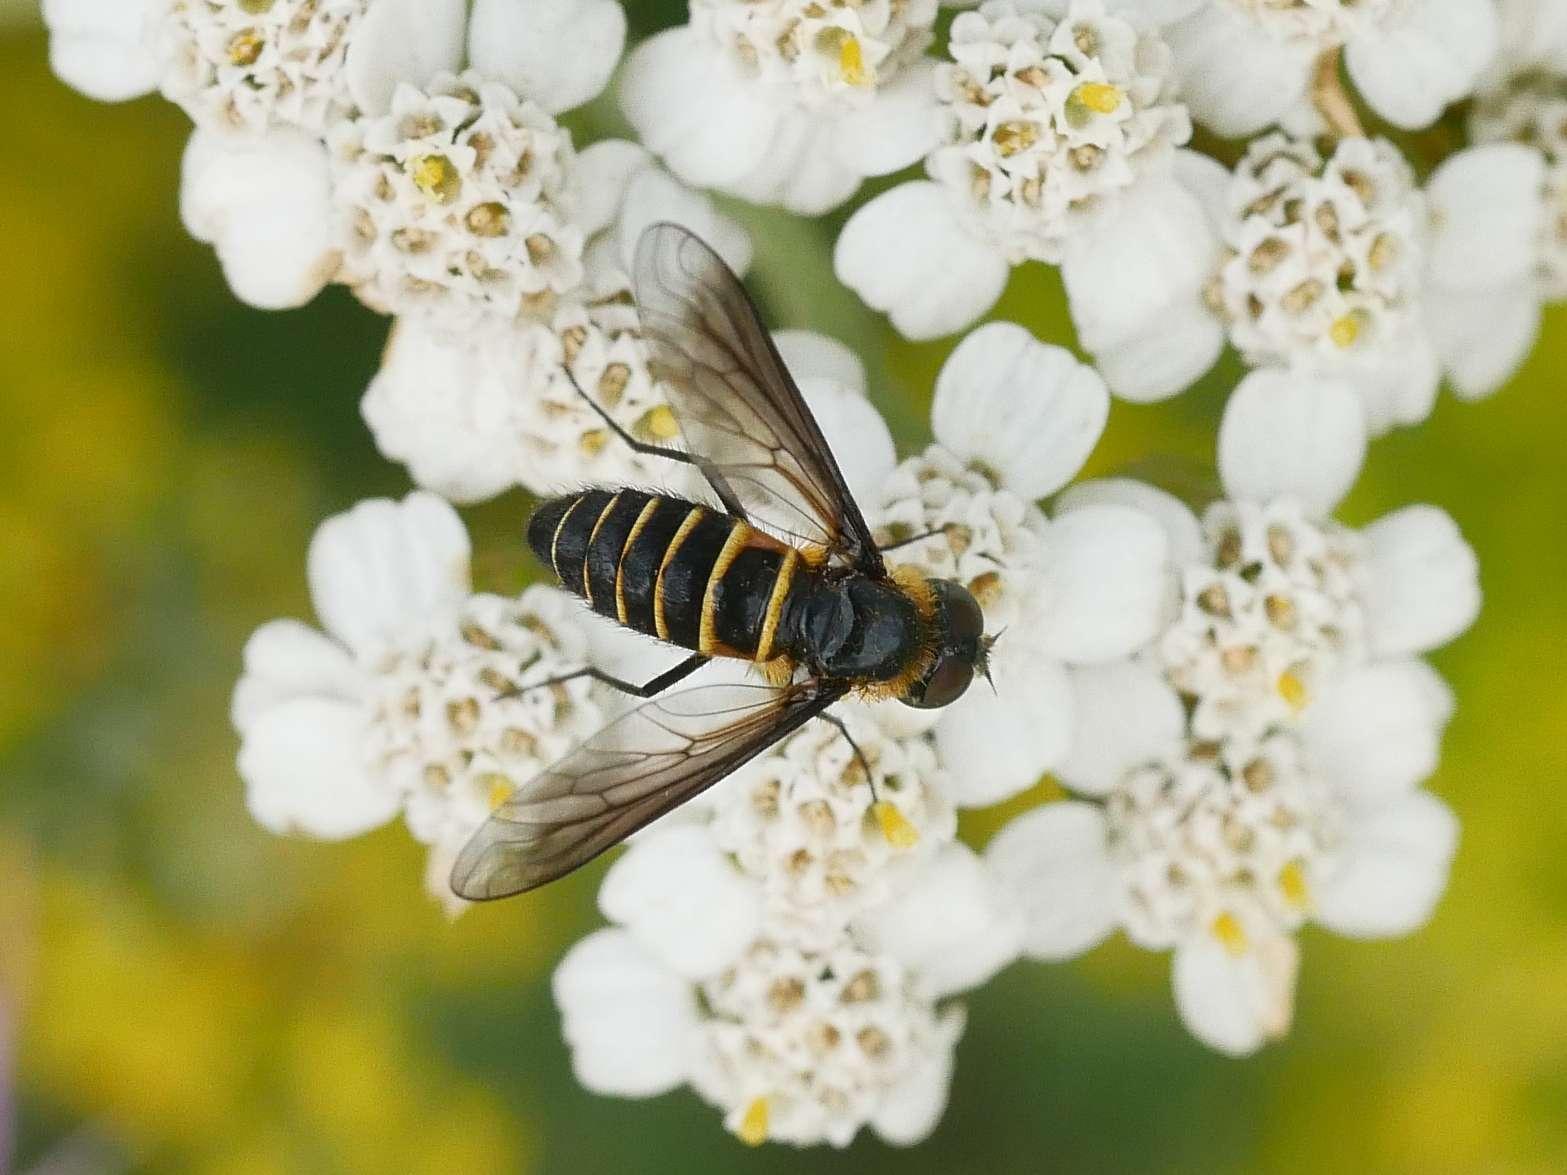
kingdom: Animalia
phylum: Arthropoda
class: Insecta
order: Diptera
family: Bombyliidae
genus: Lomatia
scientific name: Lomatia lateralis
